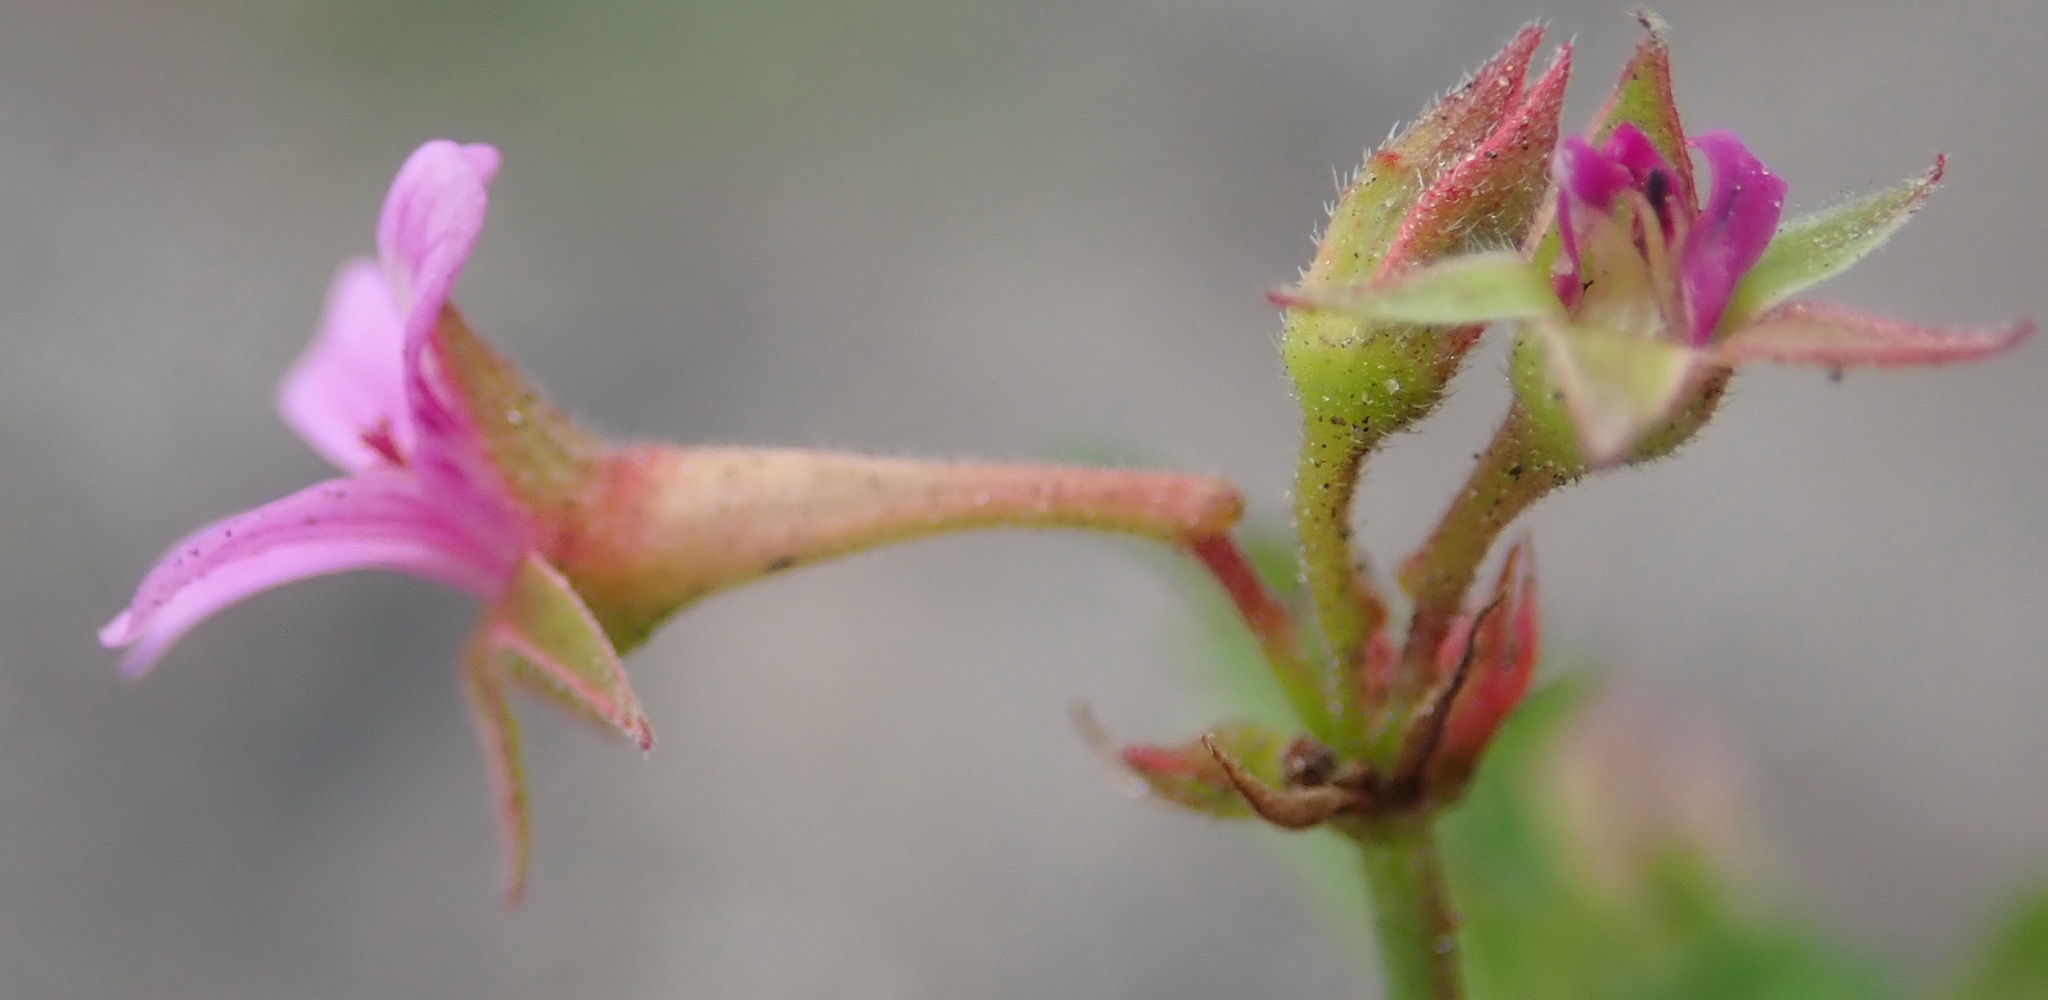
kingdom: Plantae
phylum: Tracheophyta
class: Magnoliopsida
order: Geraniales
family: Geraniaceae
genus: Pelargonium
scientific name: Pelargonium grossularioides
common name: Gooseberry geranium
